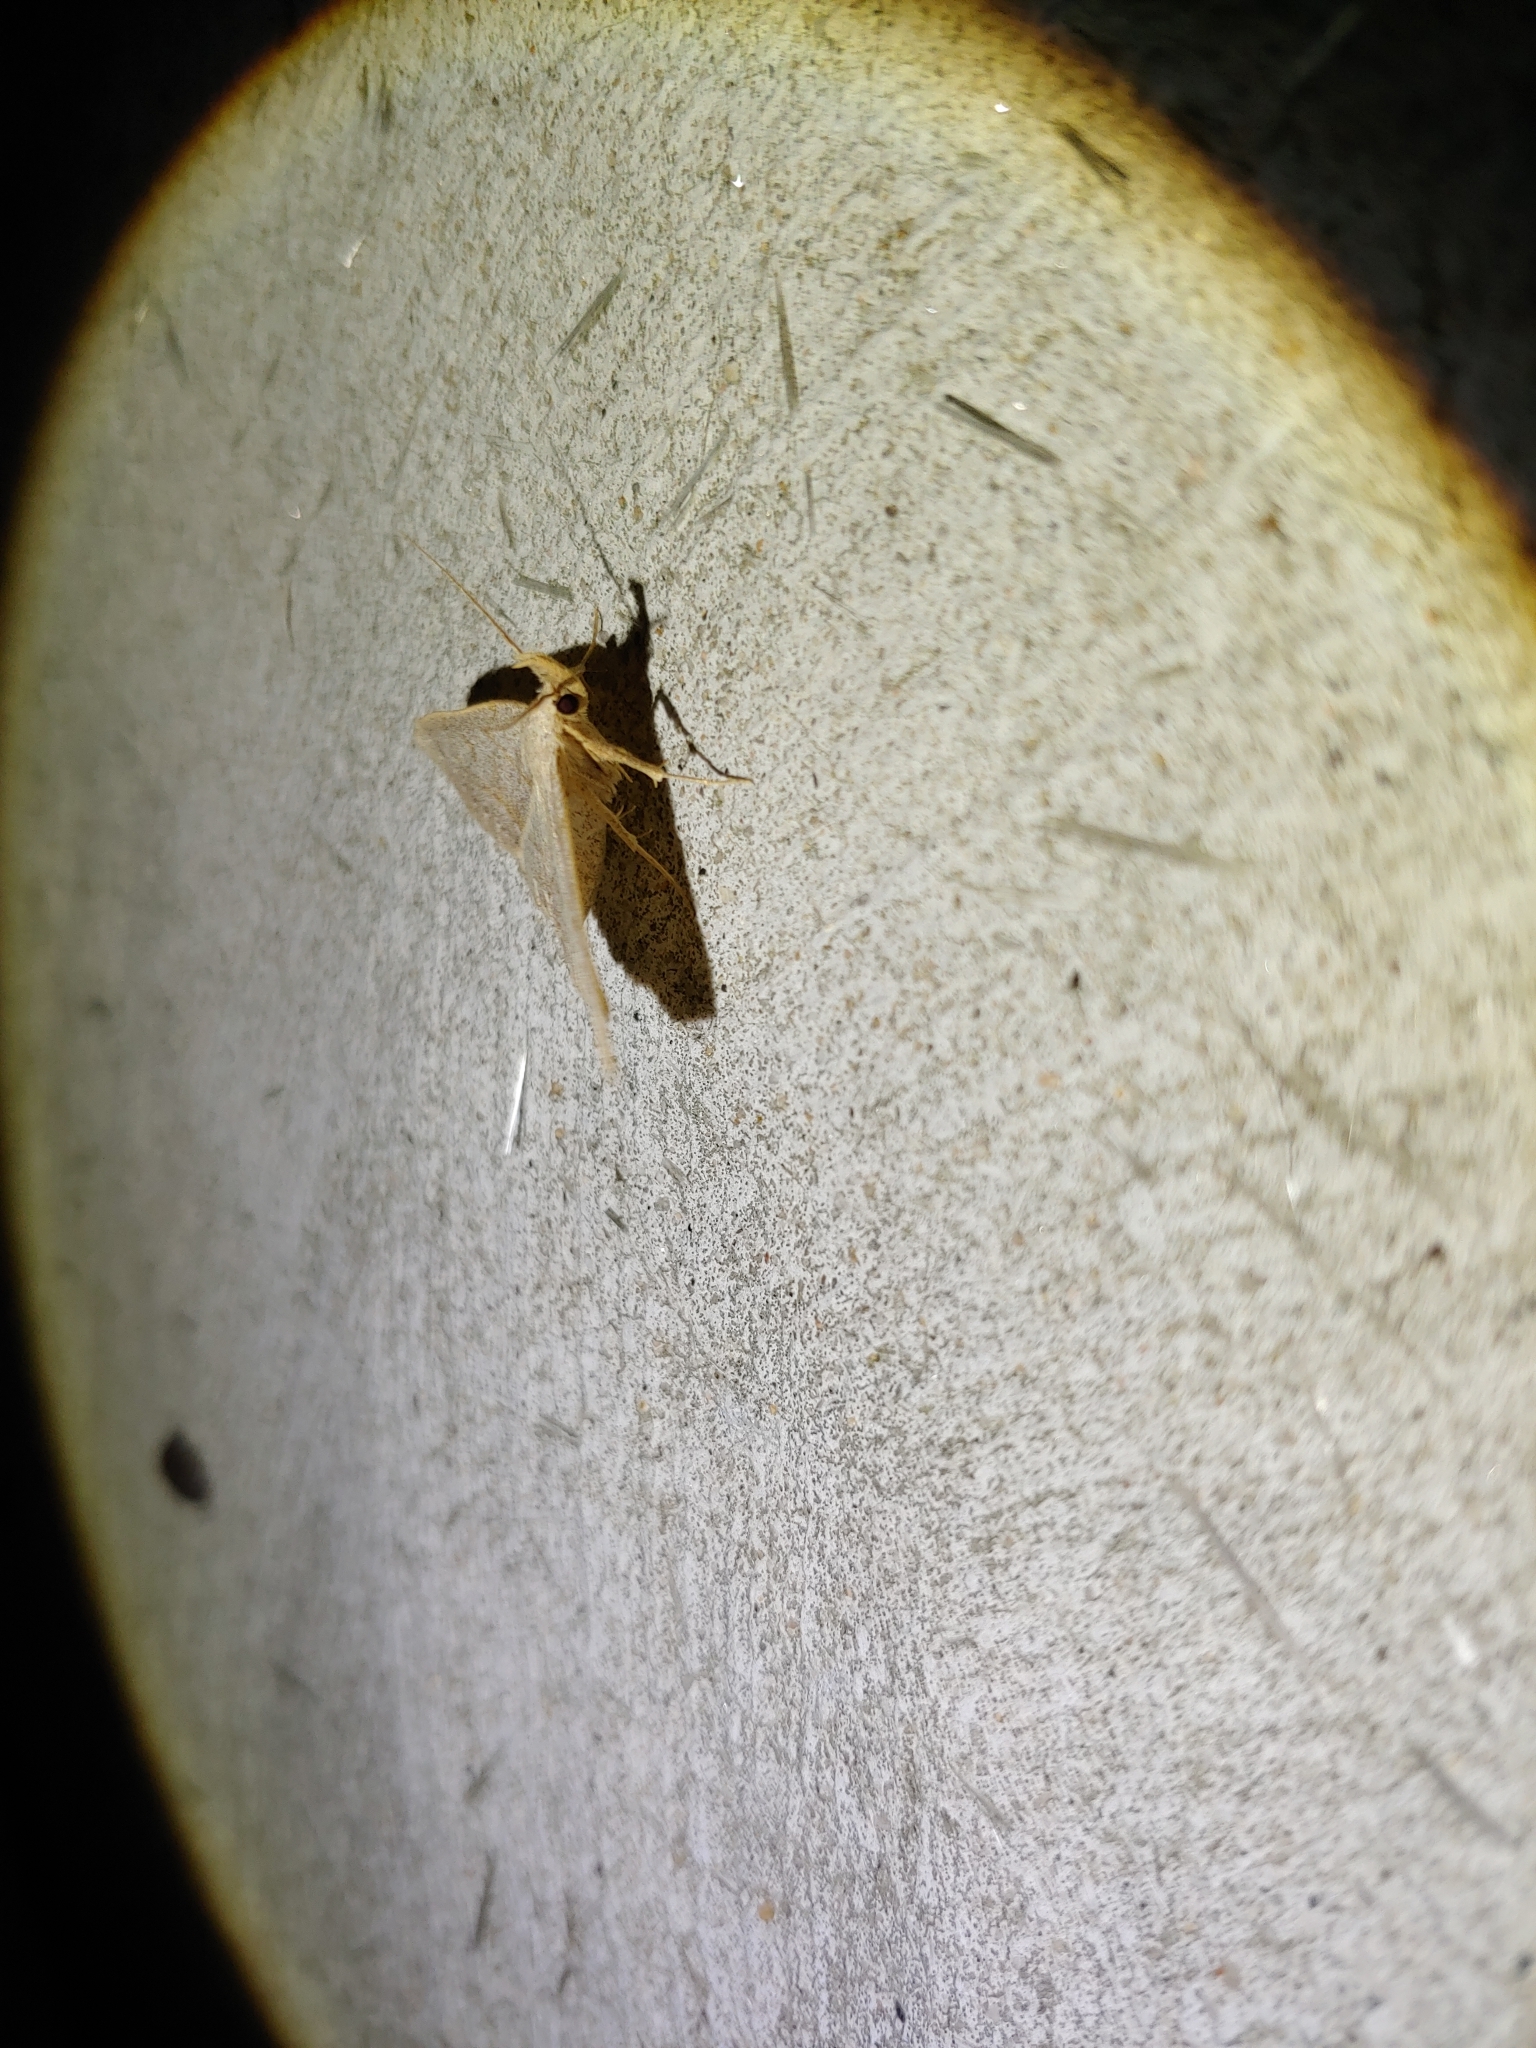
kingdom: Animalia
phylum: Arthropoda
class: Insecta
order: Lepidoptera
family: Erebidae
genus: Macrochilo
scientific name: Macrochilo morbidalis
